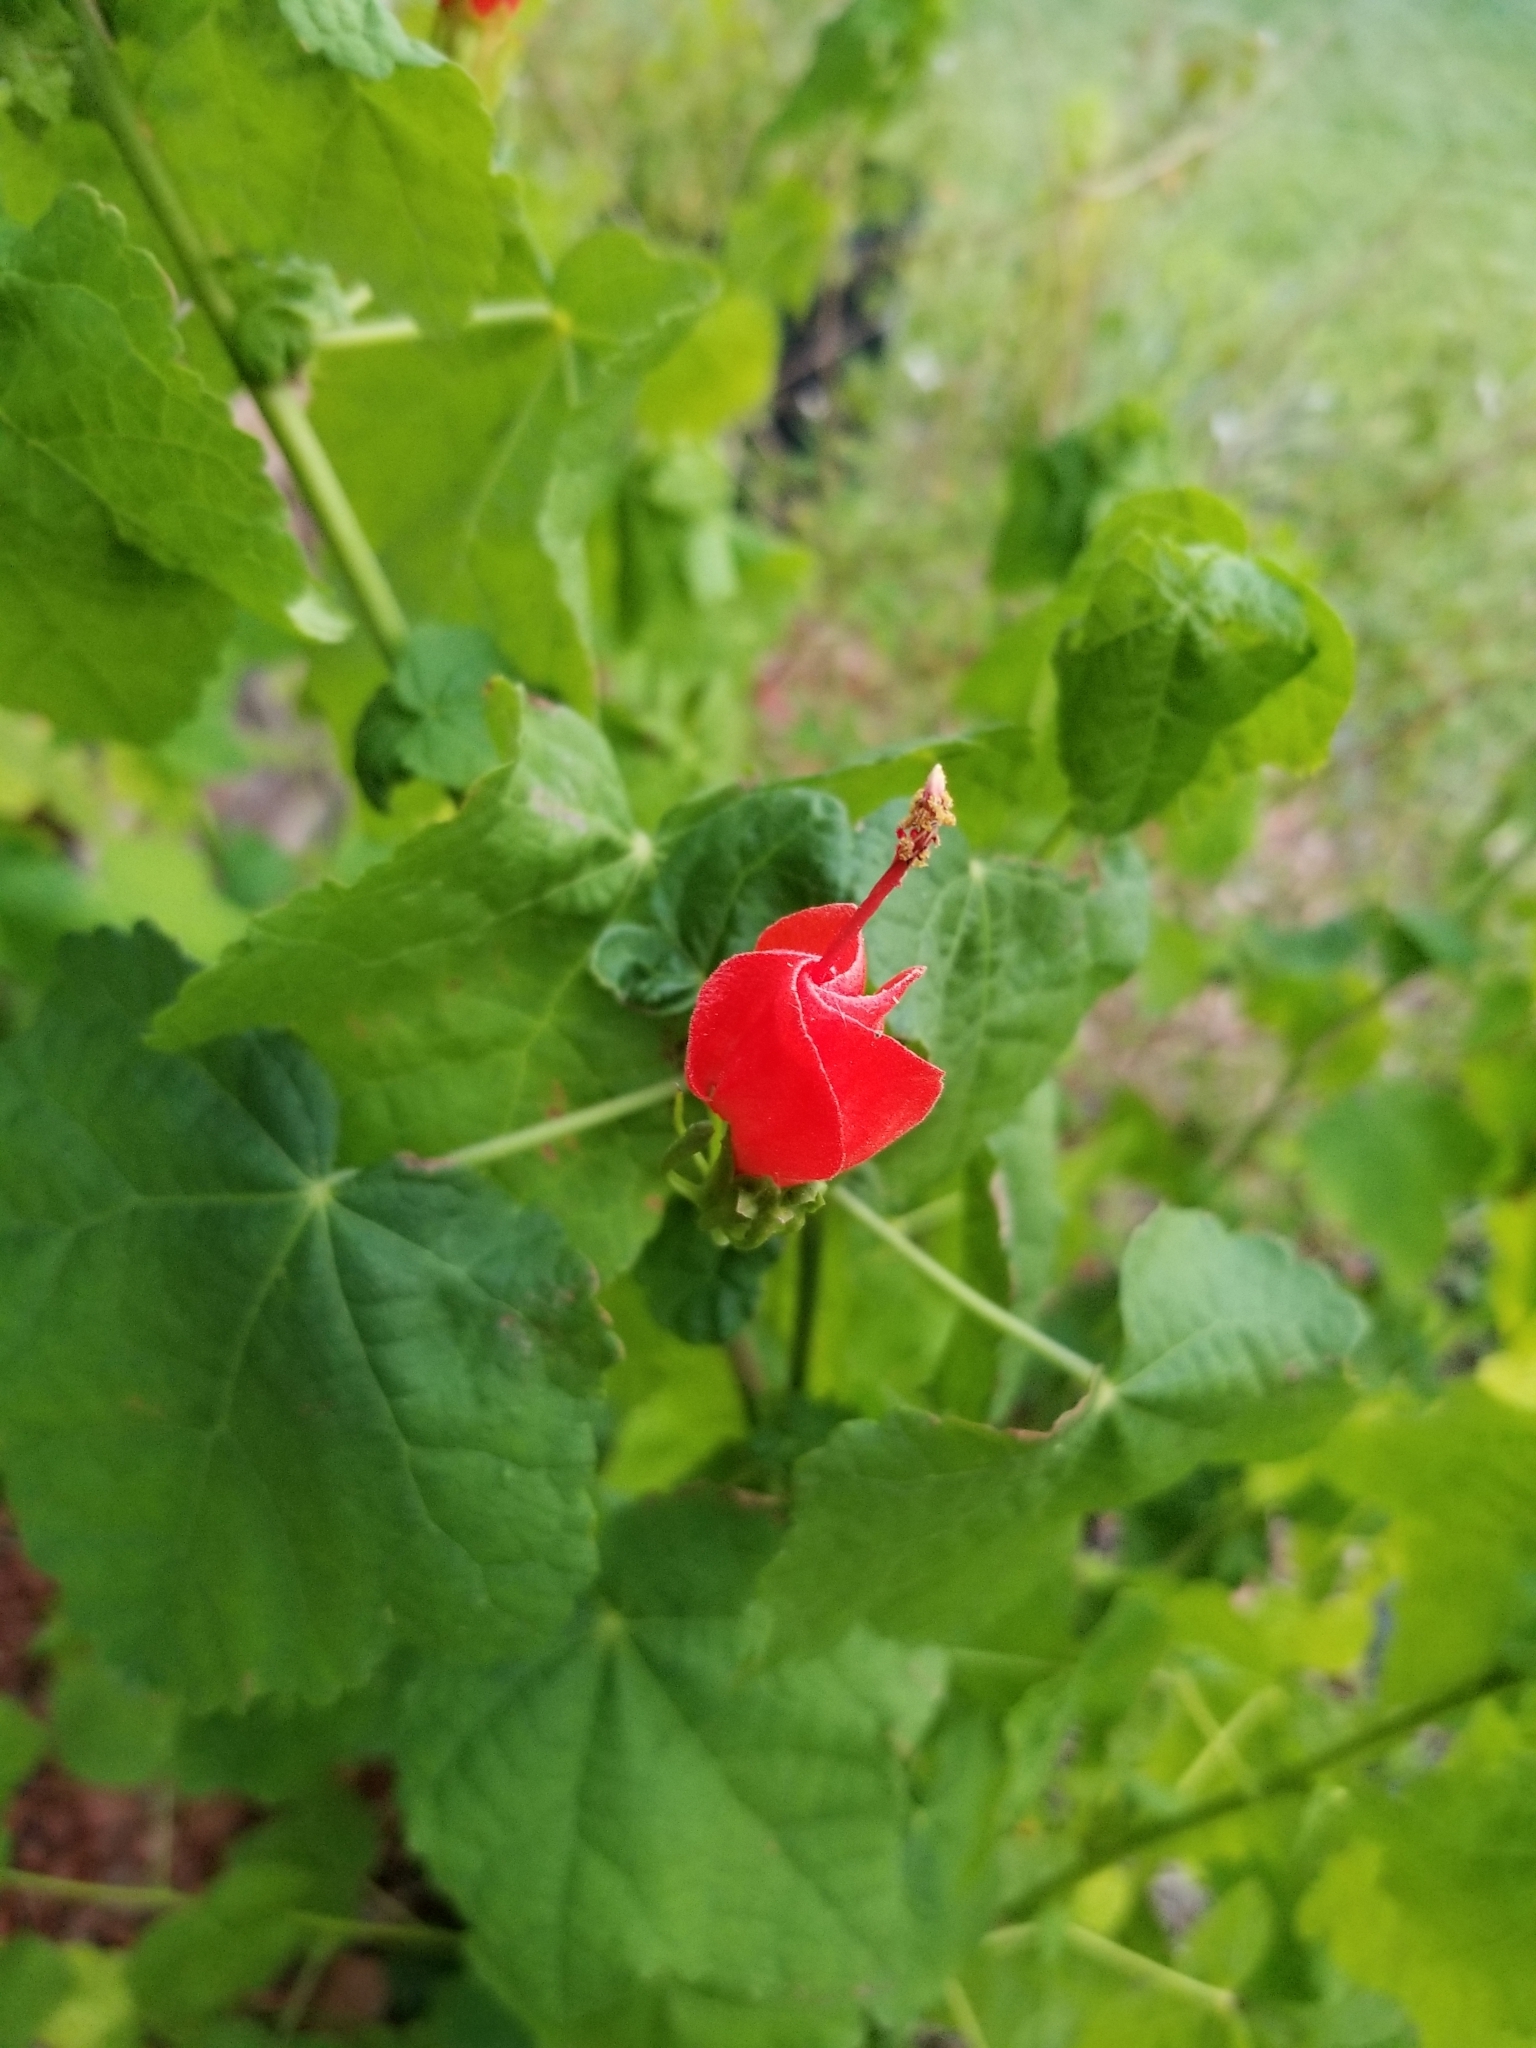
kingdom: Plantae
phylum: Tracheophyta
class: Magnoliopsida
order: Malvales
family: Malvaceae
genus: Malvaviscus
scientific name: Malvaviscus arboreus
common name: Wax mallow
